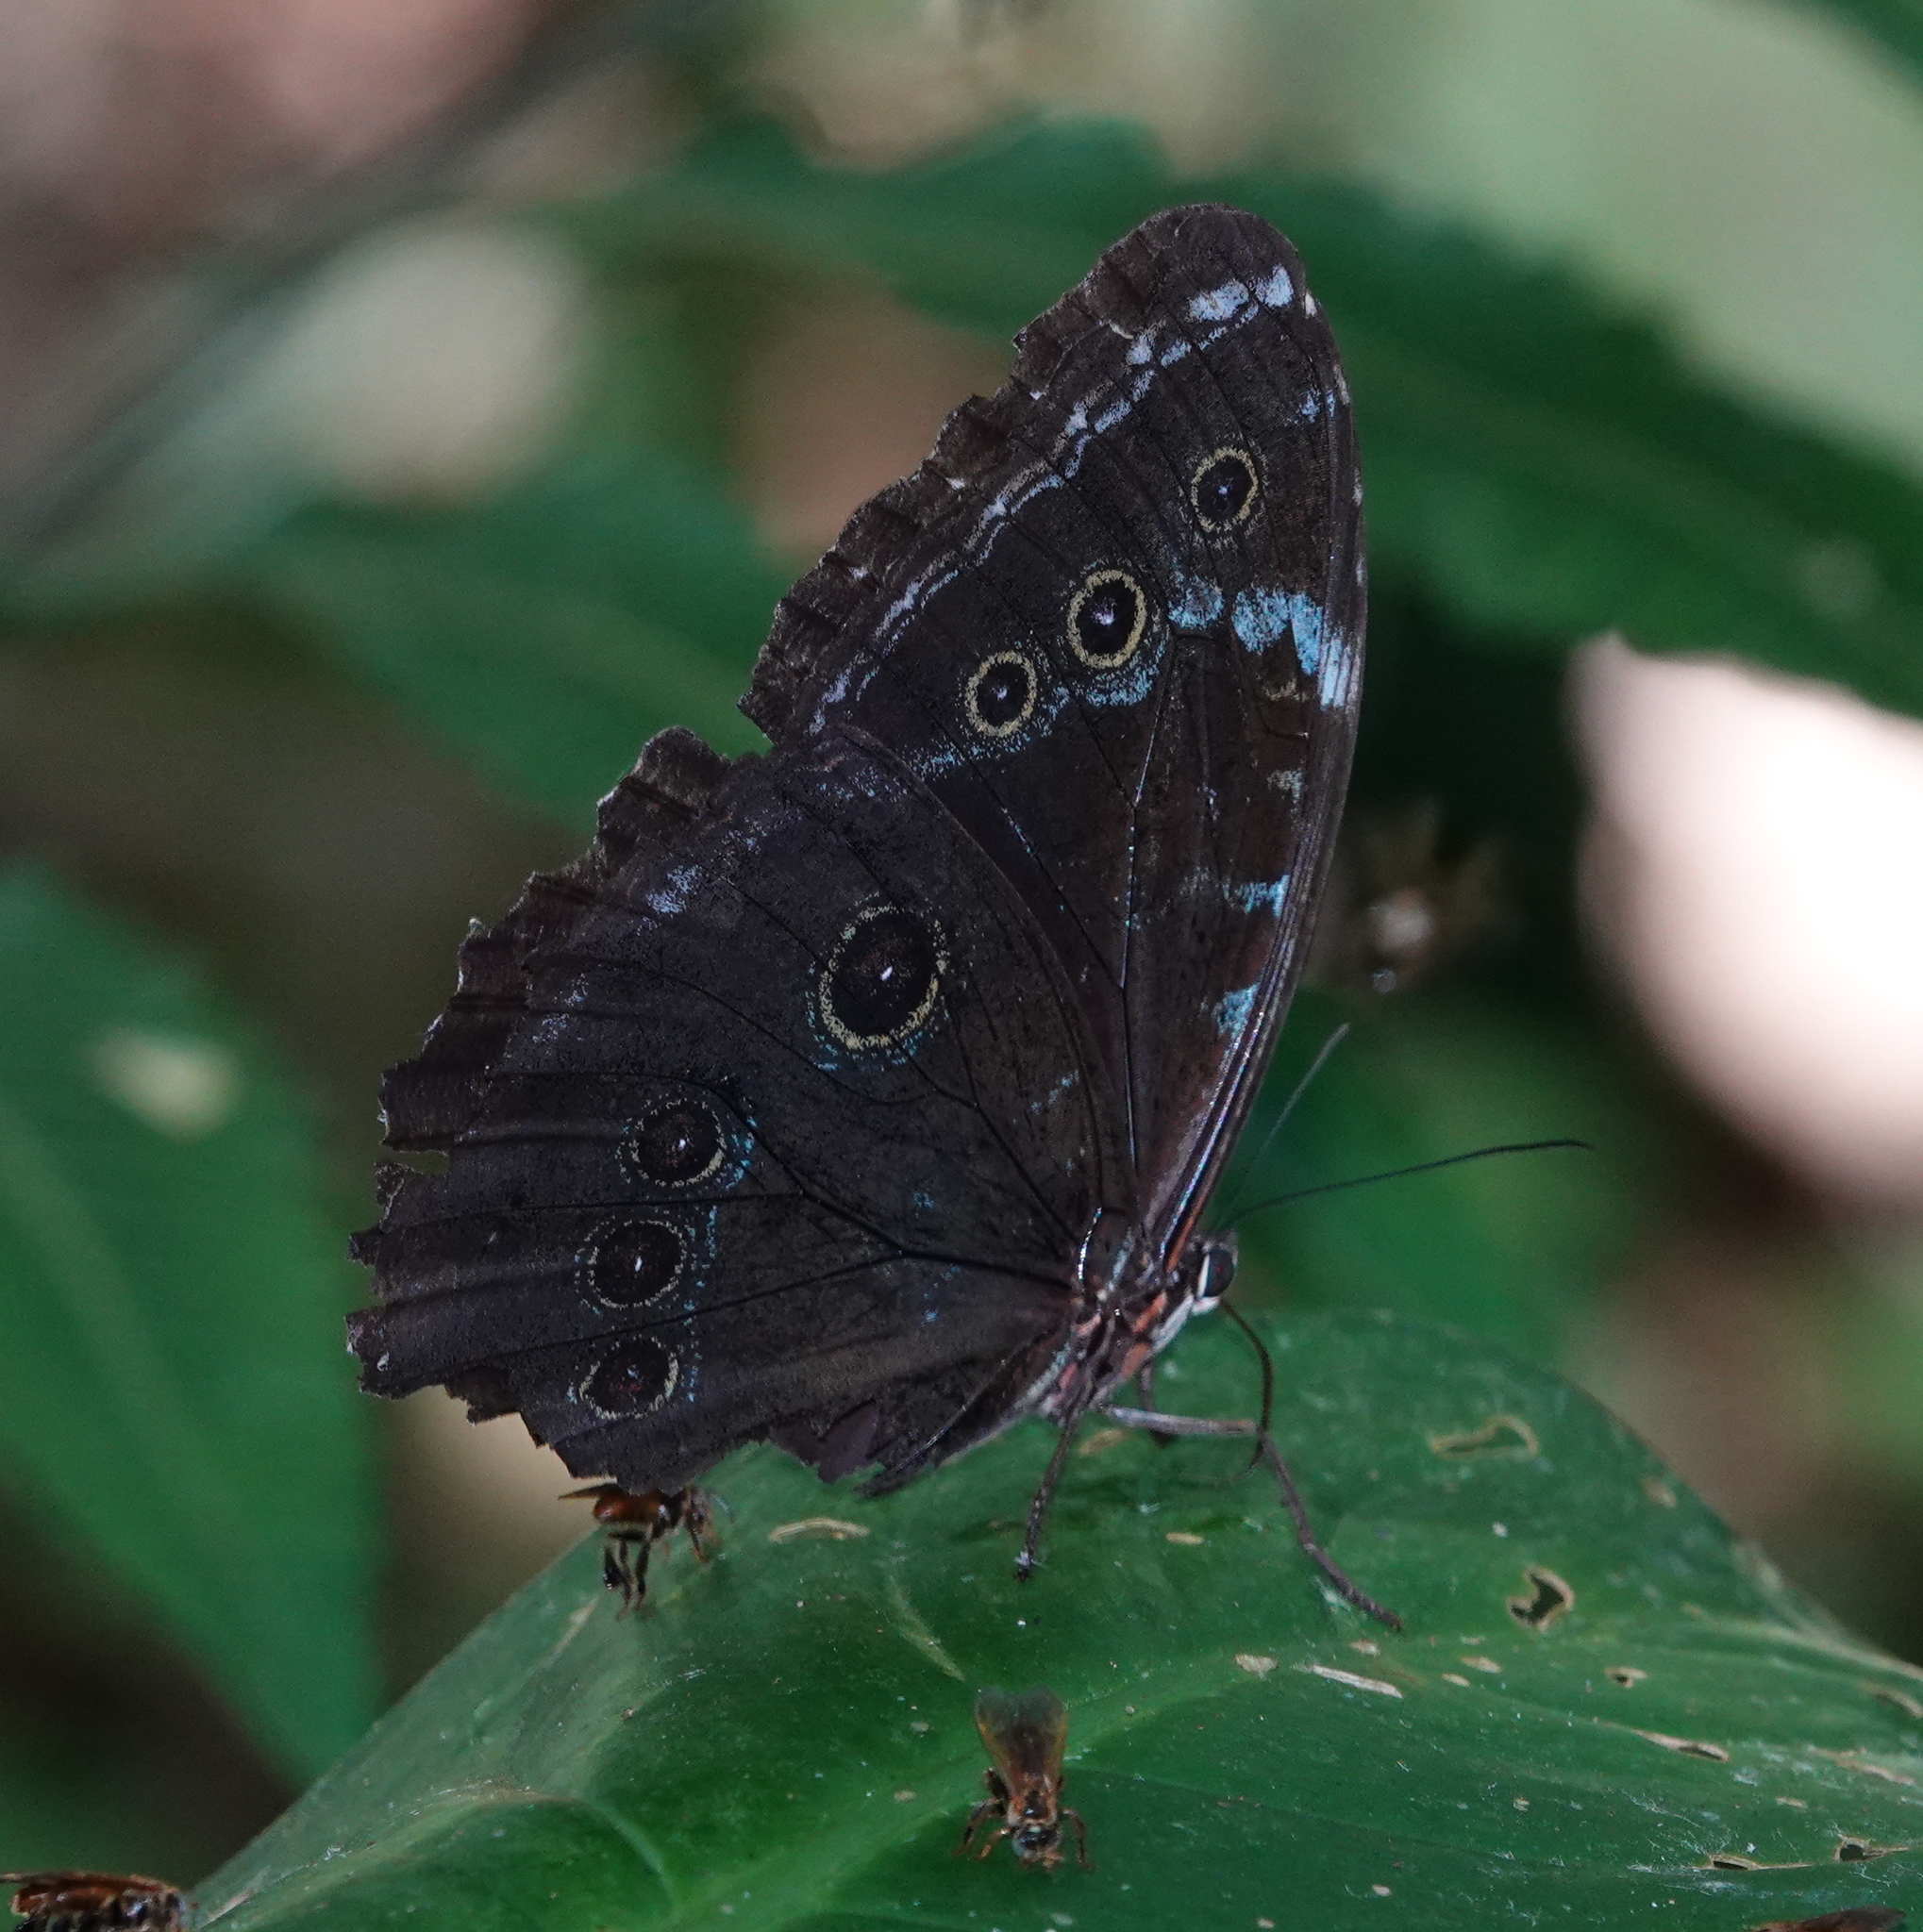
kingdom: Animalia
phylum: Arthropoda
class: Insecta
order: Lepidoptera
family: Nymphalidae
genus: Morpho
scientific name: Morpho achilles
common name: Achilles morpho
